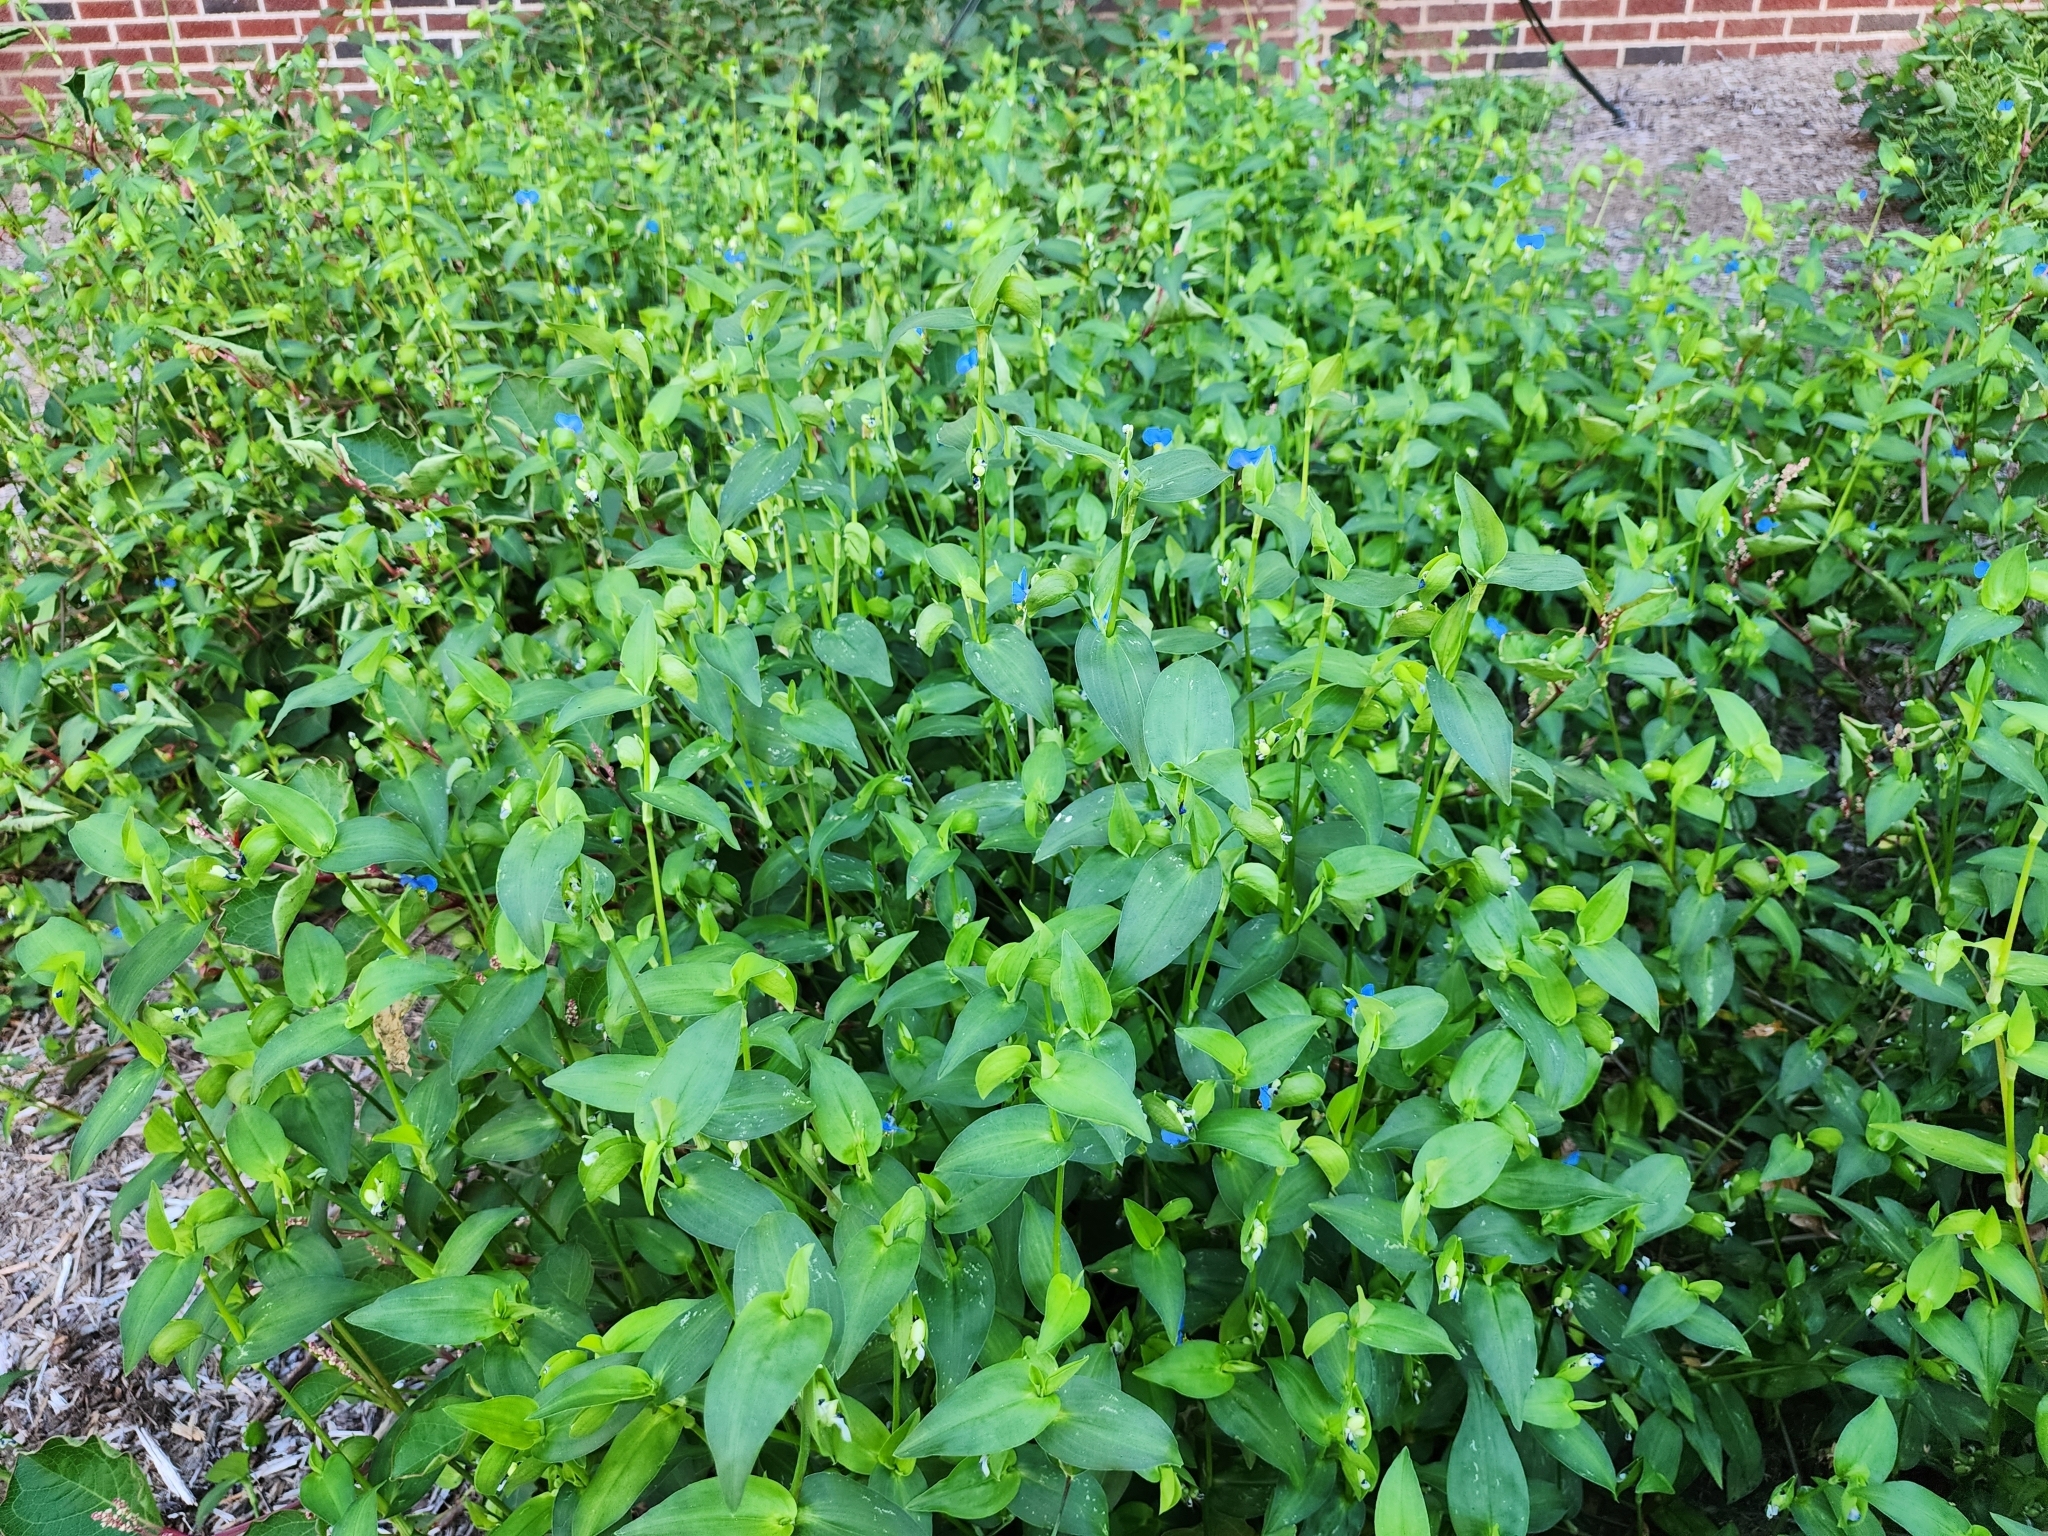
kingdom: Plantae
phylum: Tracheophyta
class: Liliopsida
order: Commelinales
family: Commelinaceae
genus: Commelina
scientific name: Commelina communis
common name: Asiatic dayflower
